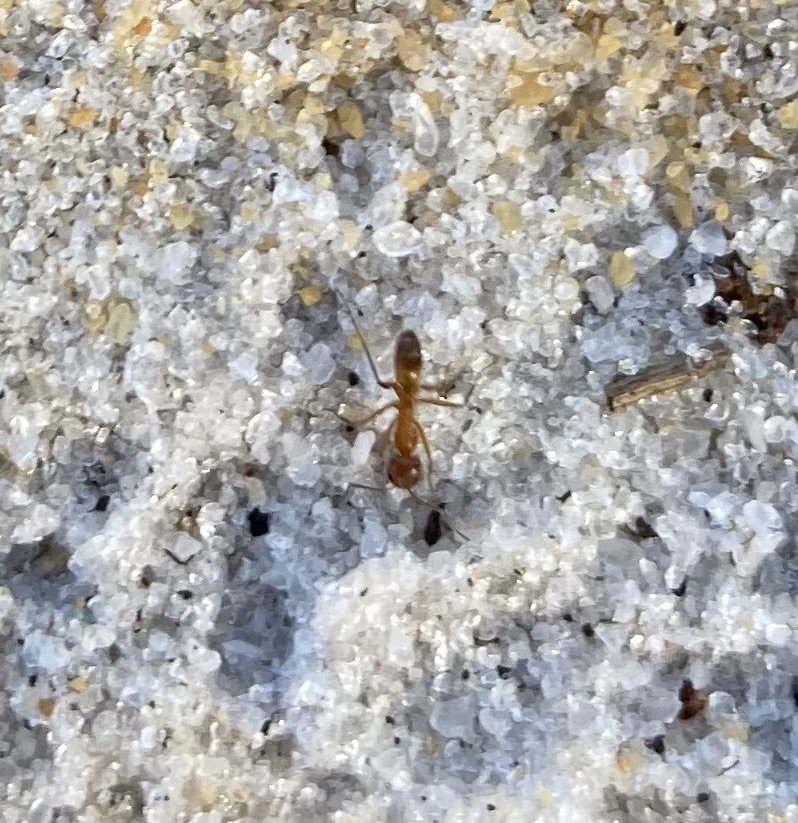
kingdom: Animalia
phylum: Arthropoda
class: Insecta
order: Hymenoptera
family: Formicidae
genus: Dorymyrmex
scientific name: Dorymyrmex bureni
